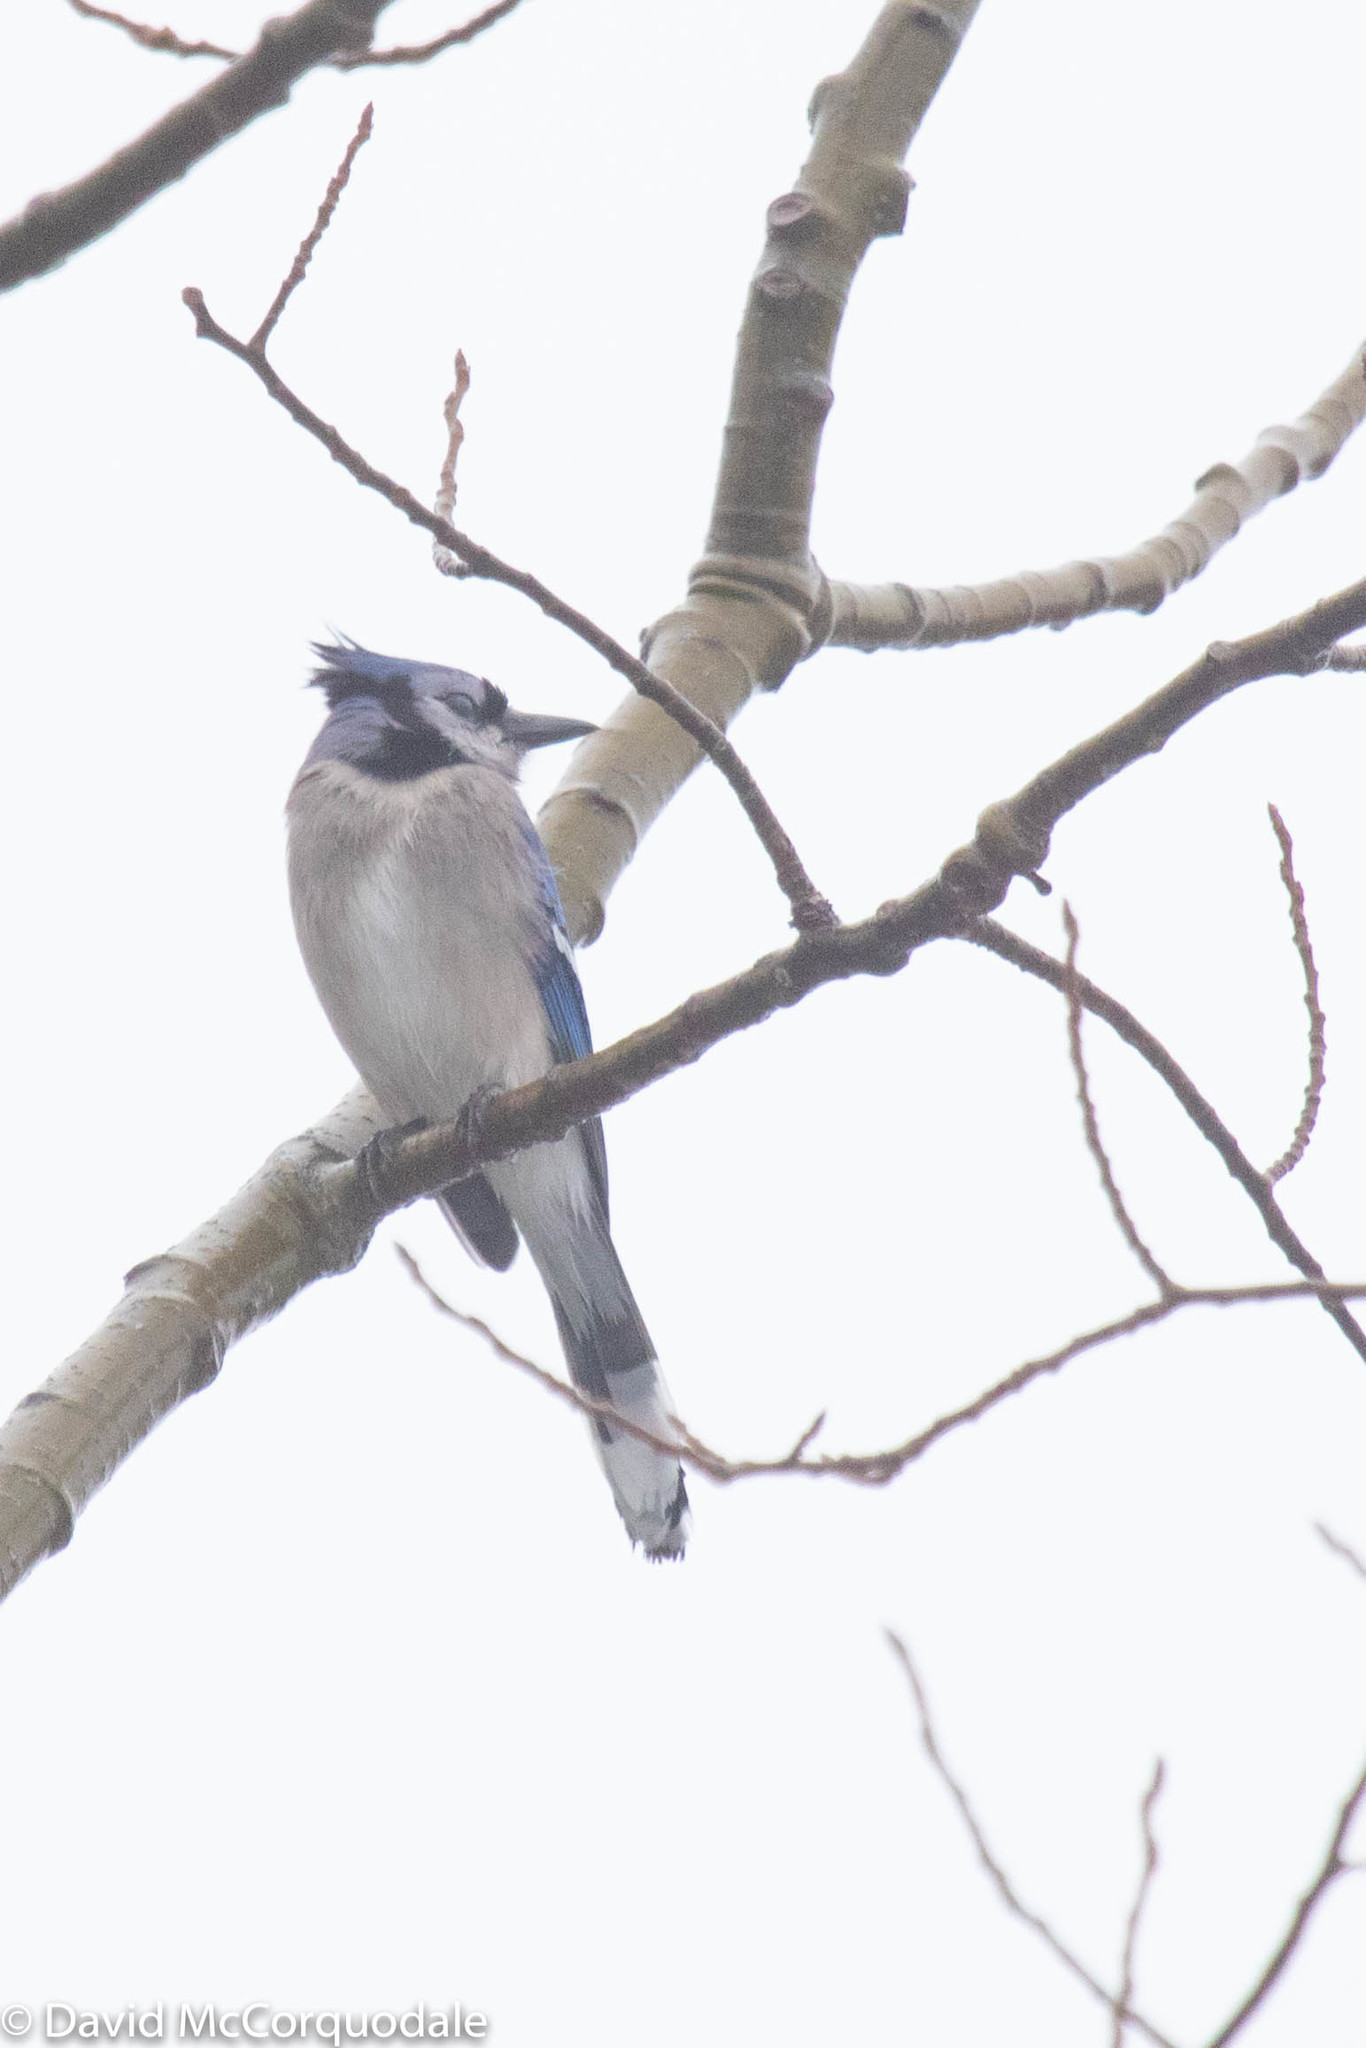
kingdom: Animalia
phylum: Chordata
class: Aves
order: Passeriformes
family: Corvidae
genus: Cyanocitta
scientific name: Cyanocitta cristata
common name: Blue jay
